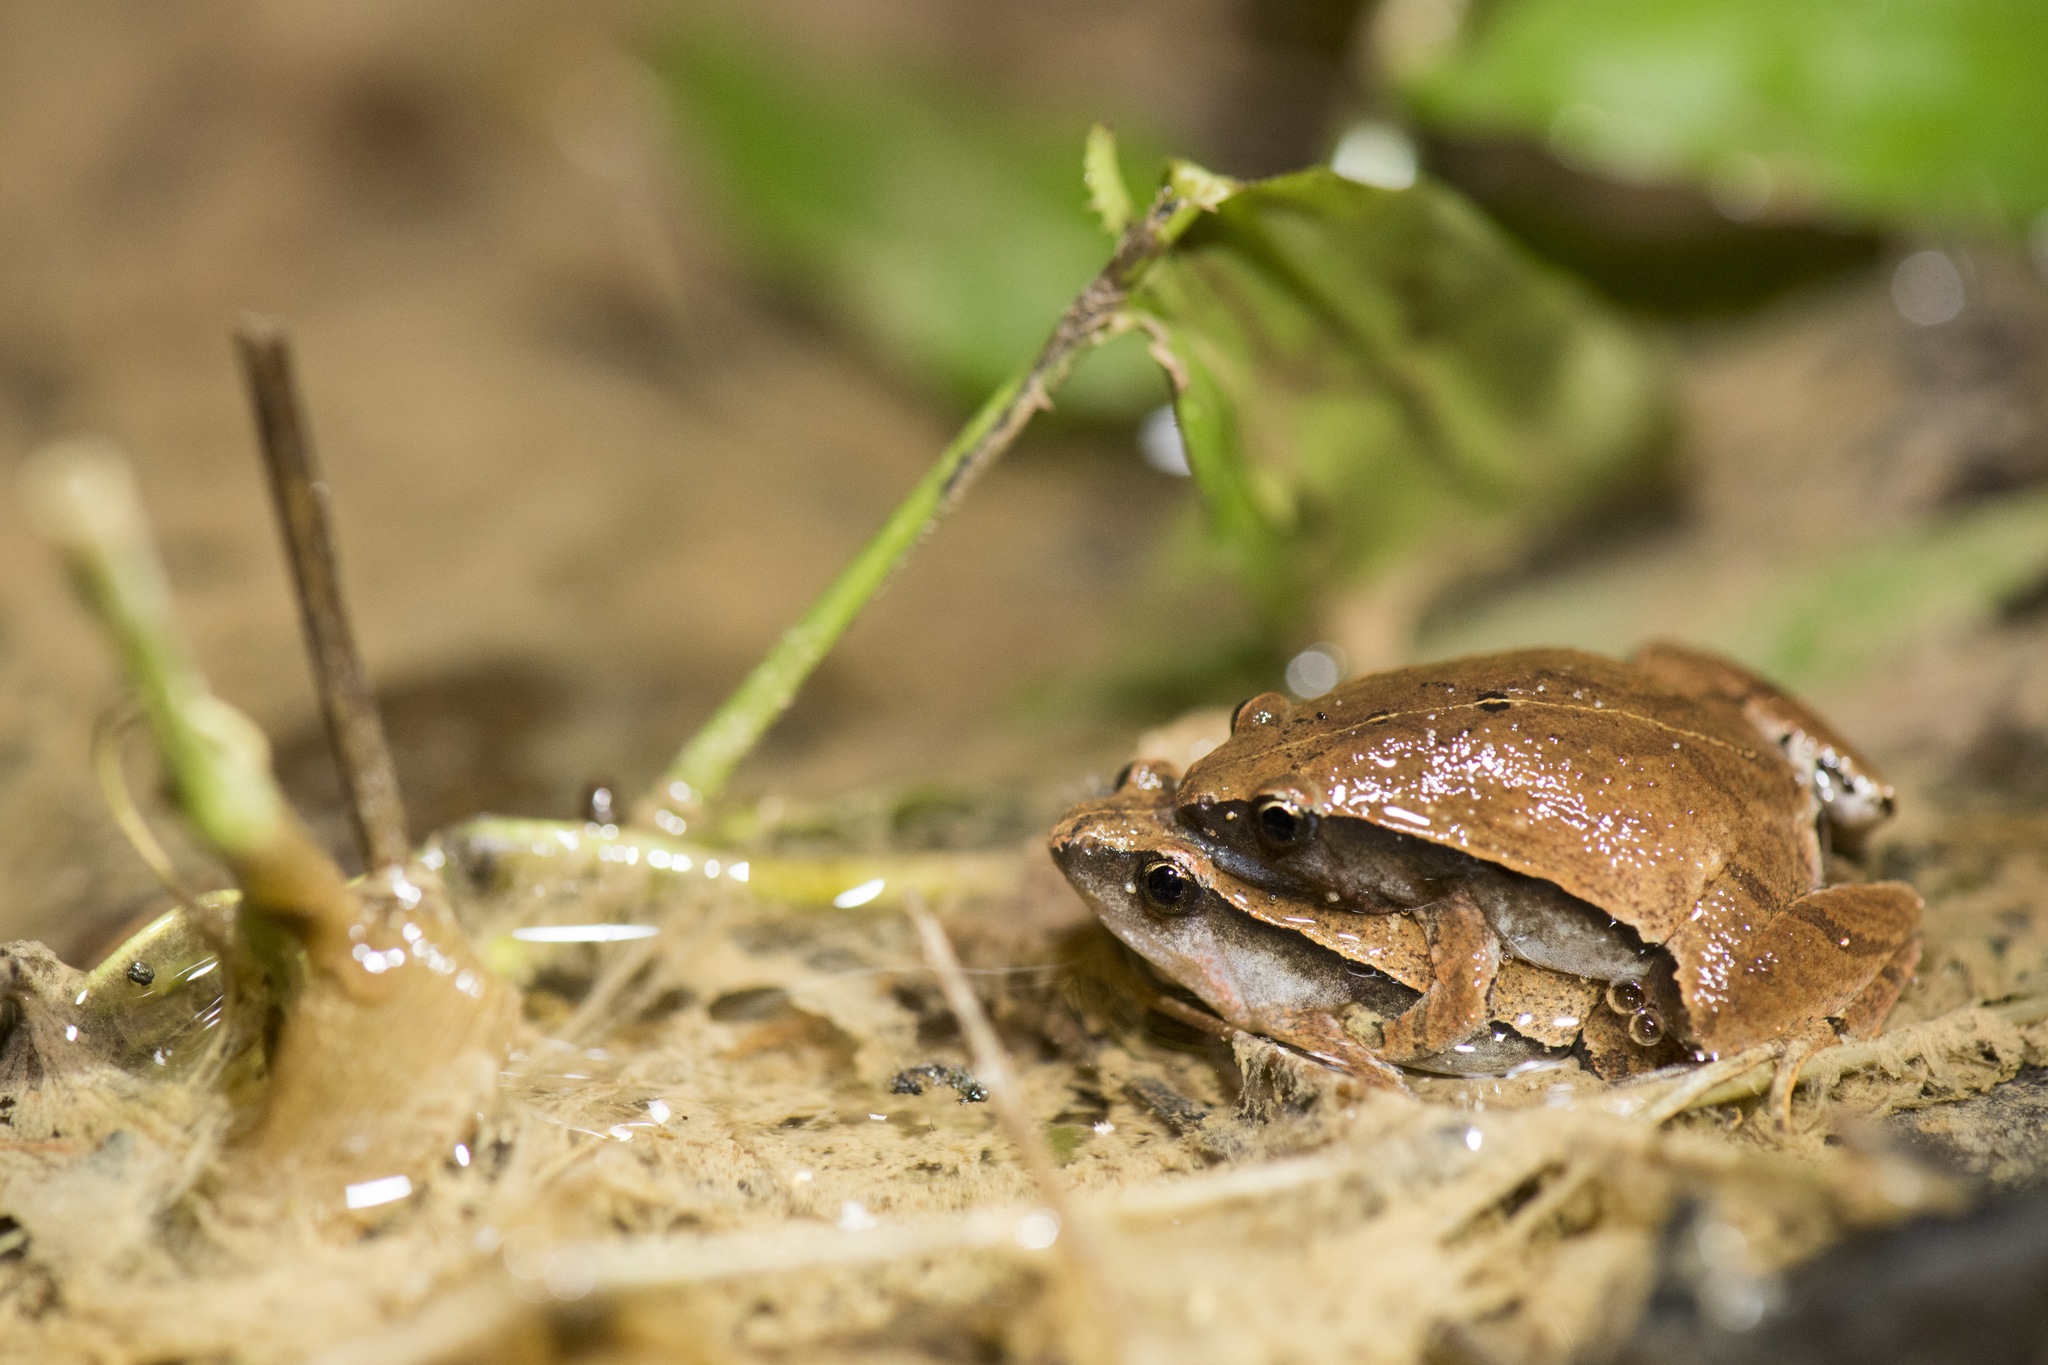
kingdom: Animalia
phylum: Chordata
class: Amphibia
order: Anura
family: Microhylidae
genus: Microhyla
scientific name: Microhyla heymonsi
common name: Taiwan rice frog,dark sided chorus frog
